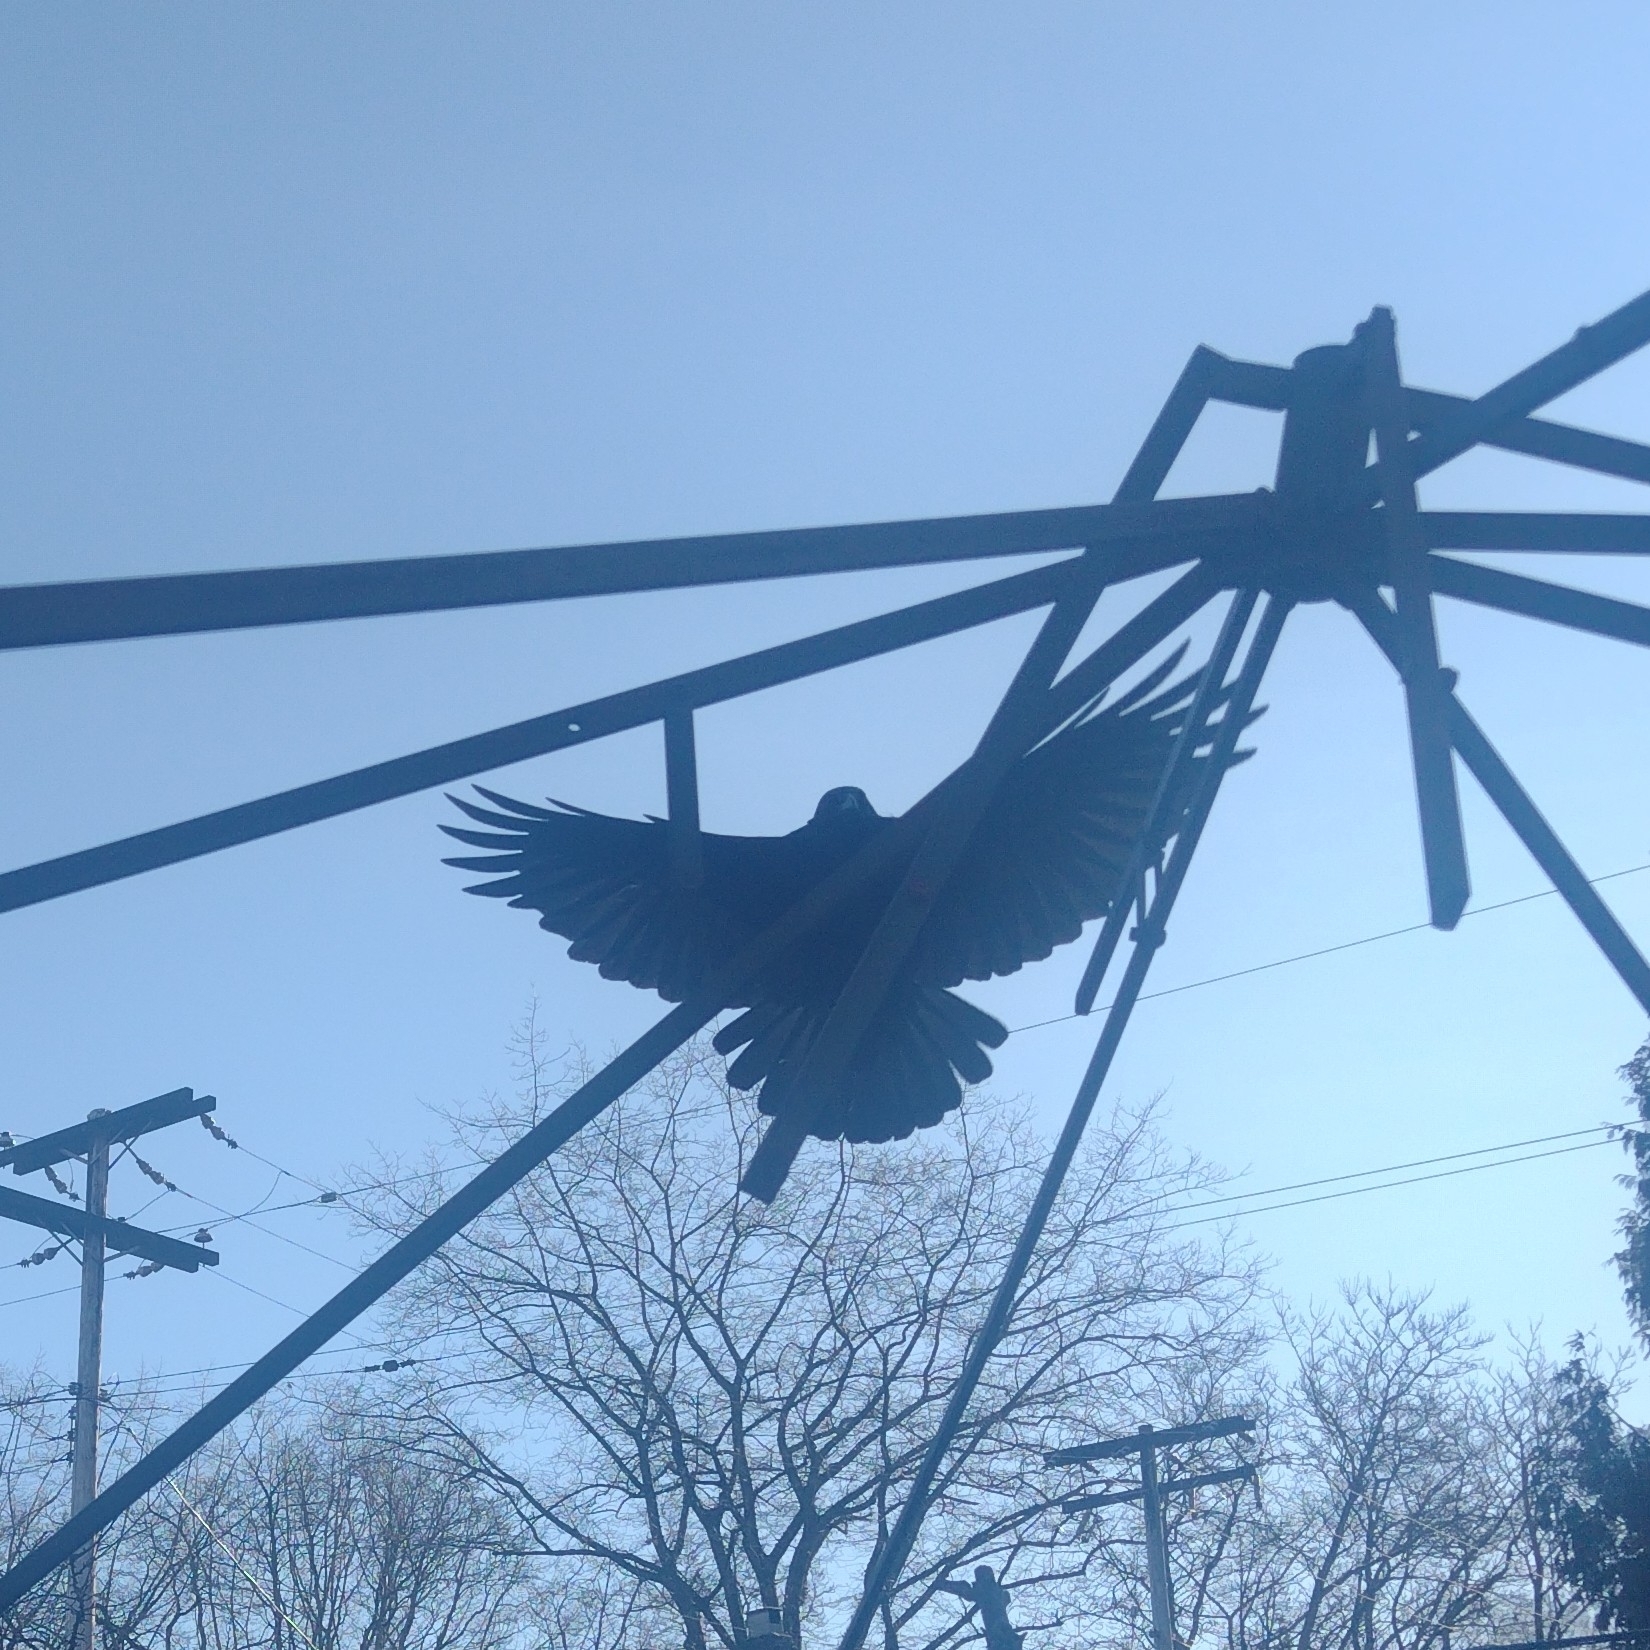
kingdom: Animalia
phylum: Chordata
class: Aves
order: Passeriformes
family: Corvidae
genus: Corvus
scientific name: Corvus brachyrhynchos
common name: American crow
